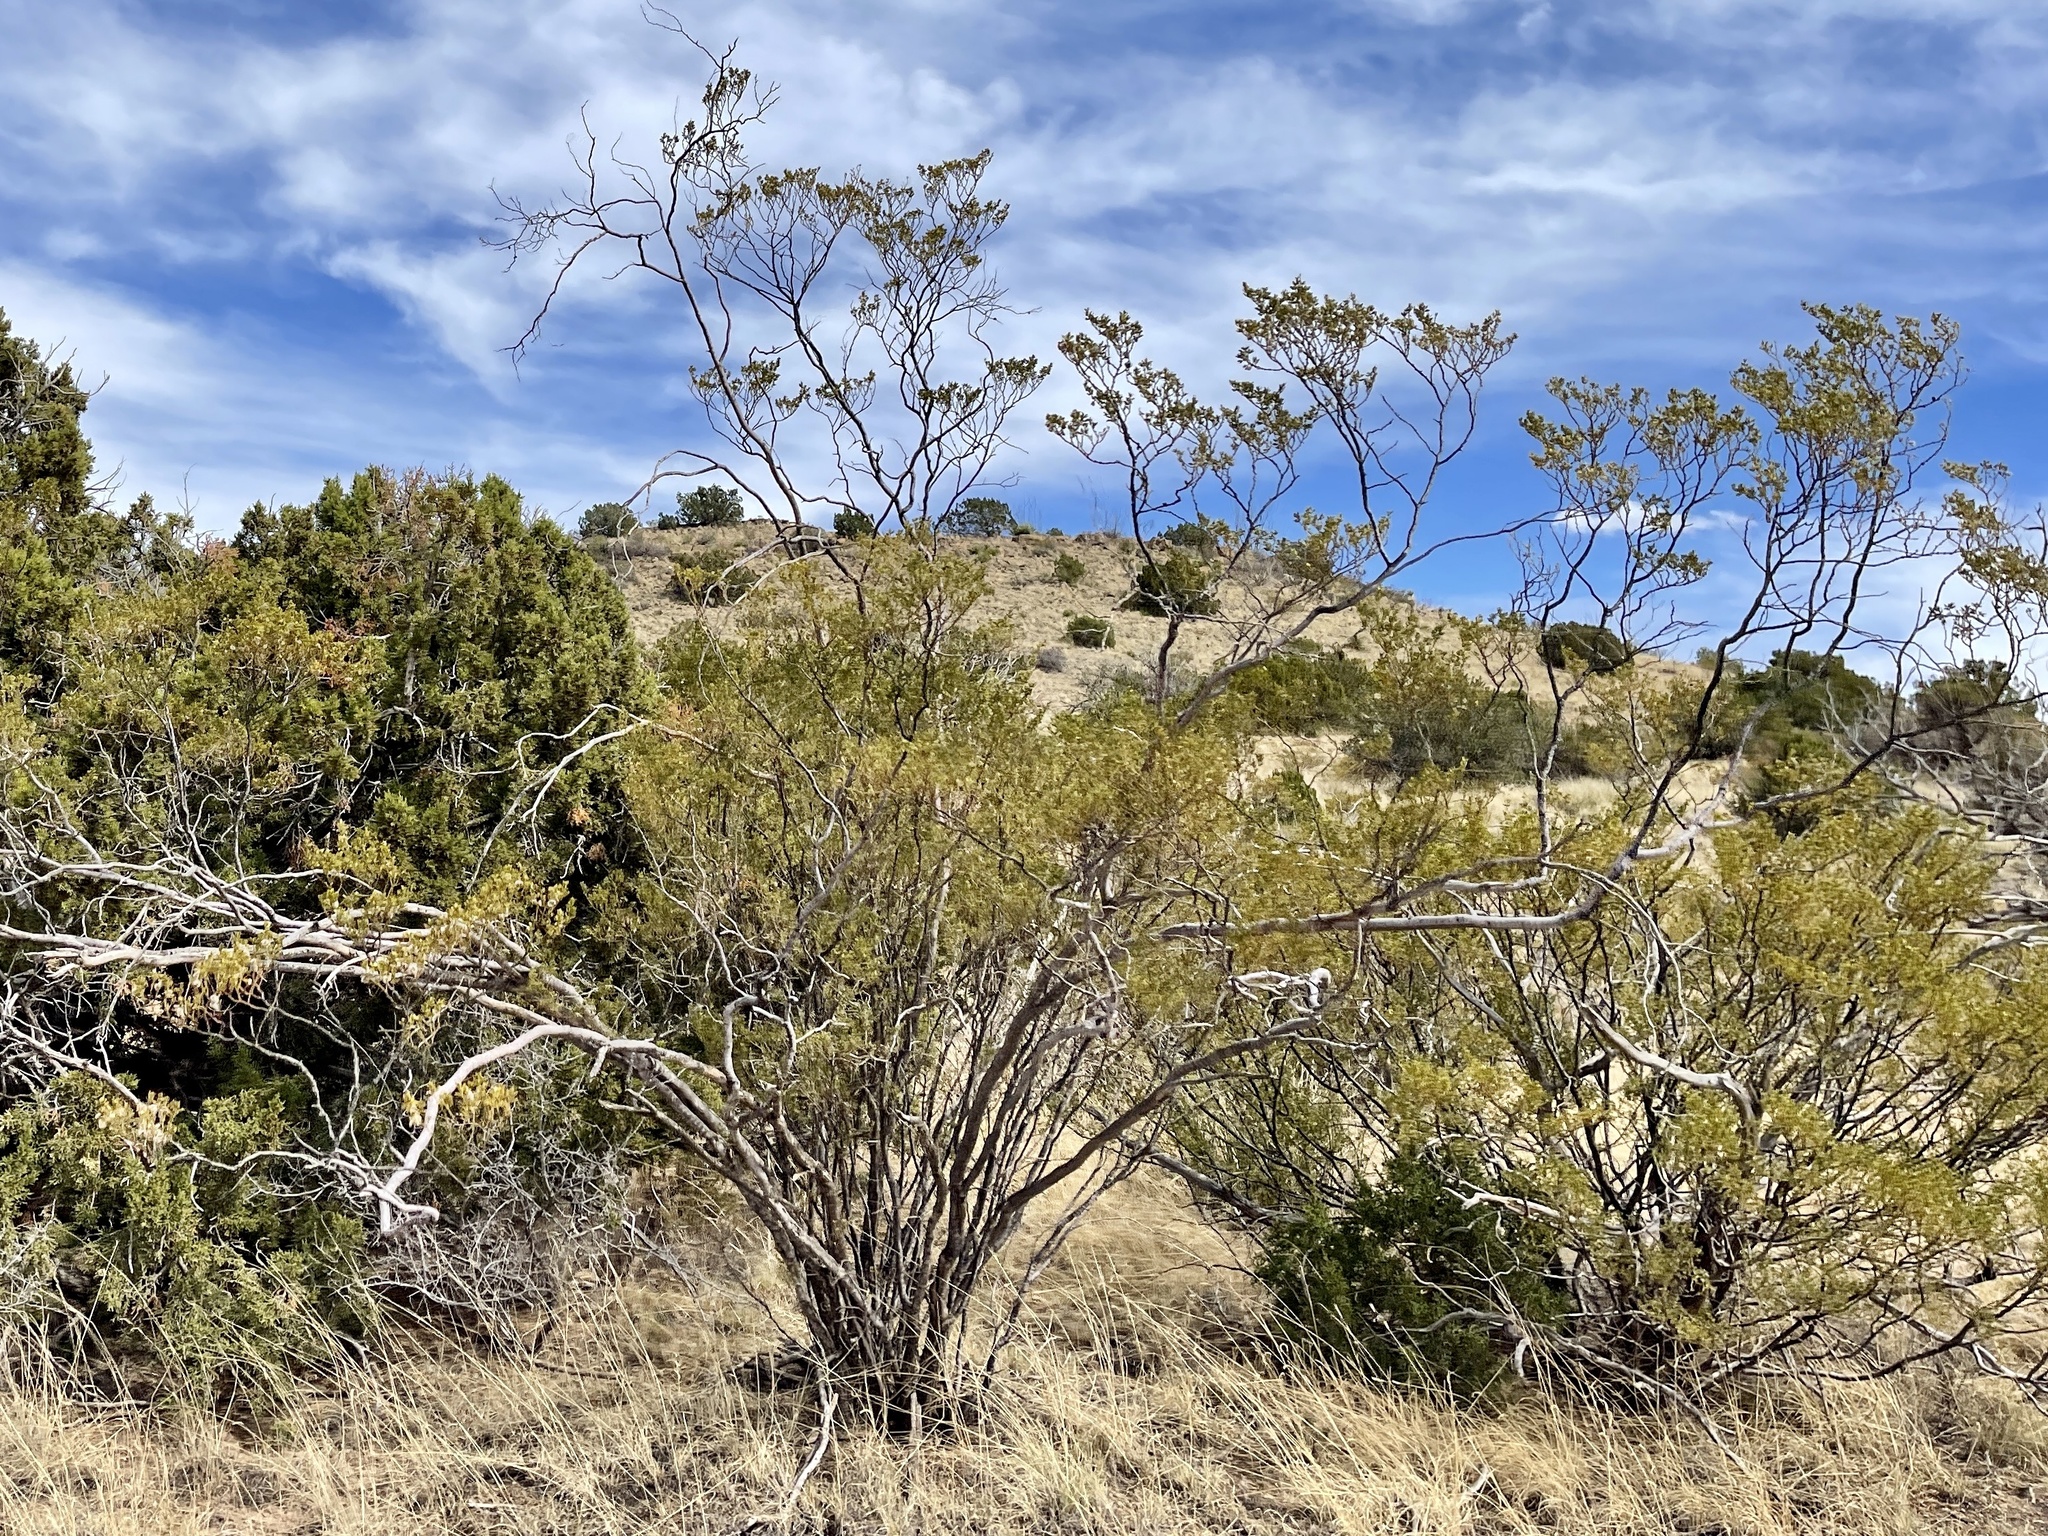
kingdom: Plantae
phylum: Tracheophyta
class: Magnoliopsida
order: Zygophyllales
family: Zygophyllaceae
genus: Larrea
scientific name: Larrea tridentata
